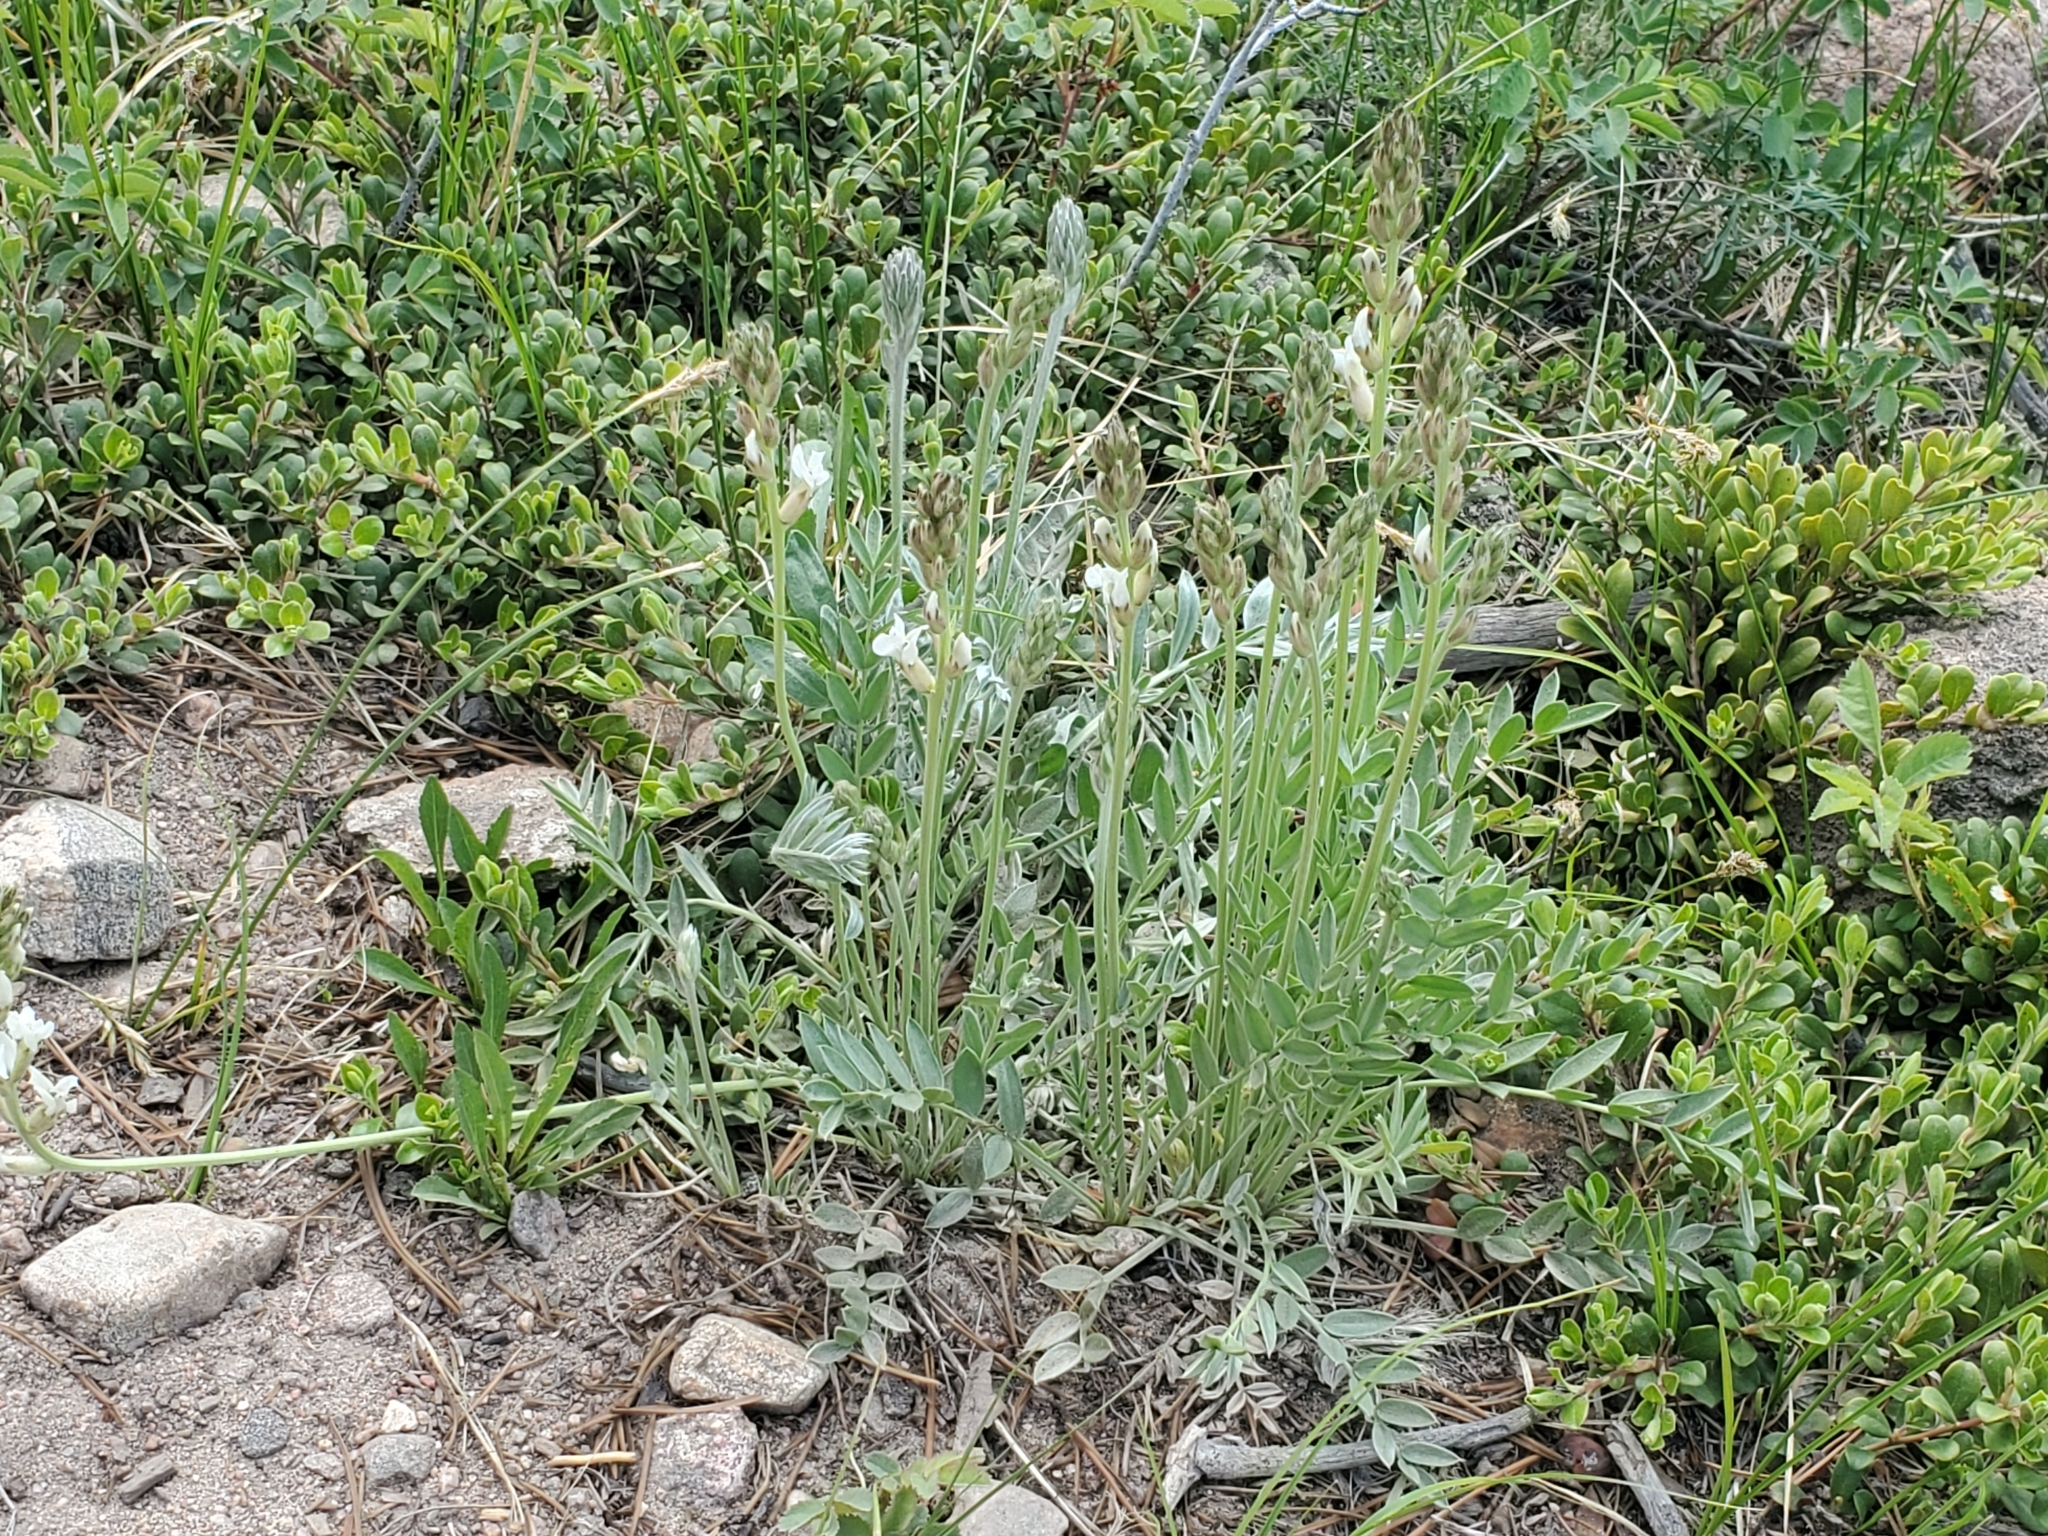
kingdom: Plantae
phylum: Tracheophyta
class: Magnoliopsida
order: Fabales
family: Fabaceae
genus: Oxytropis
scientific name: Oxytropis sericea
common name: Silky locoweed
